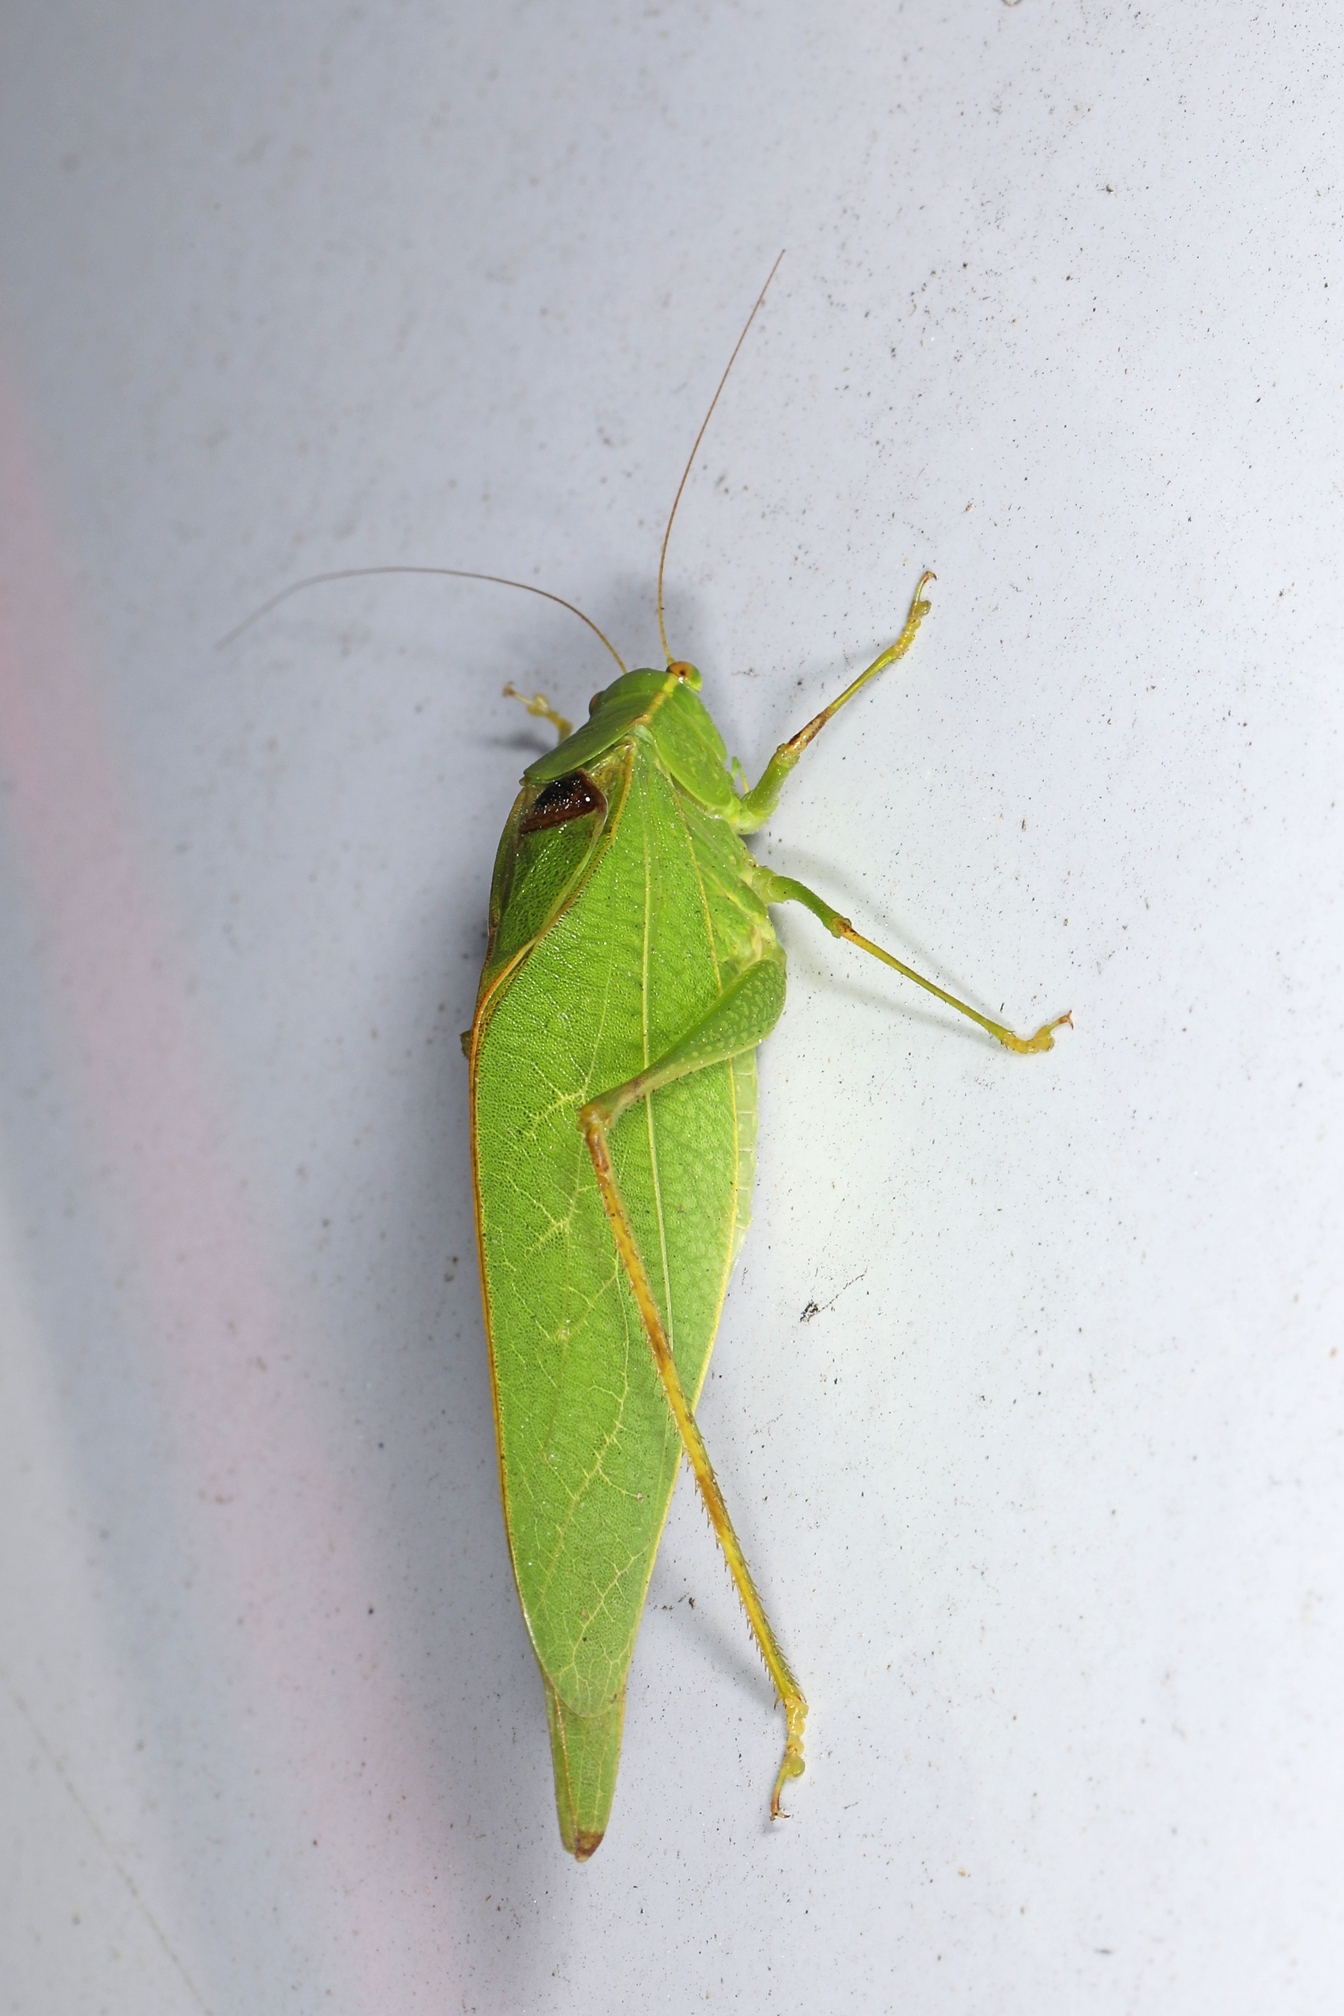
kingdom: Animalia
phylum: Arthropoda
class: Insecta
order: Orthoptera
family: Tettigoniidae
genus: Microcentrum
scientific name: Microcentrum retinerve
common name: Angular-winged katydid
